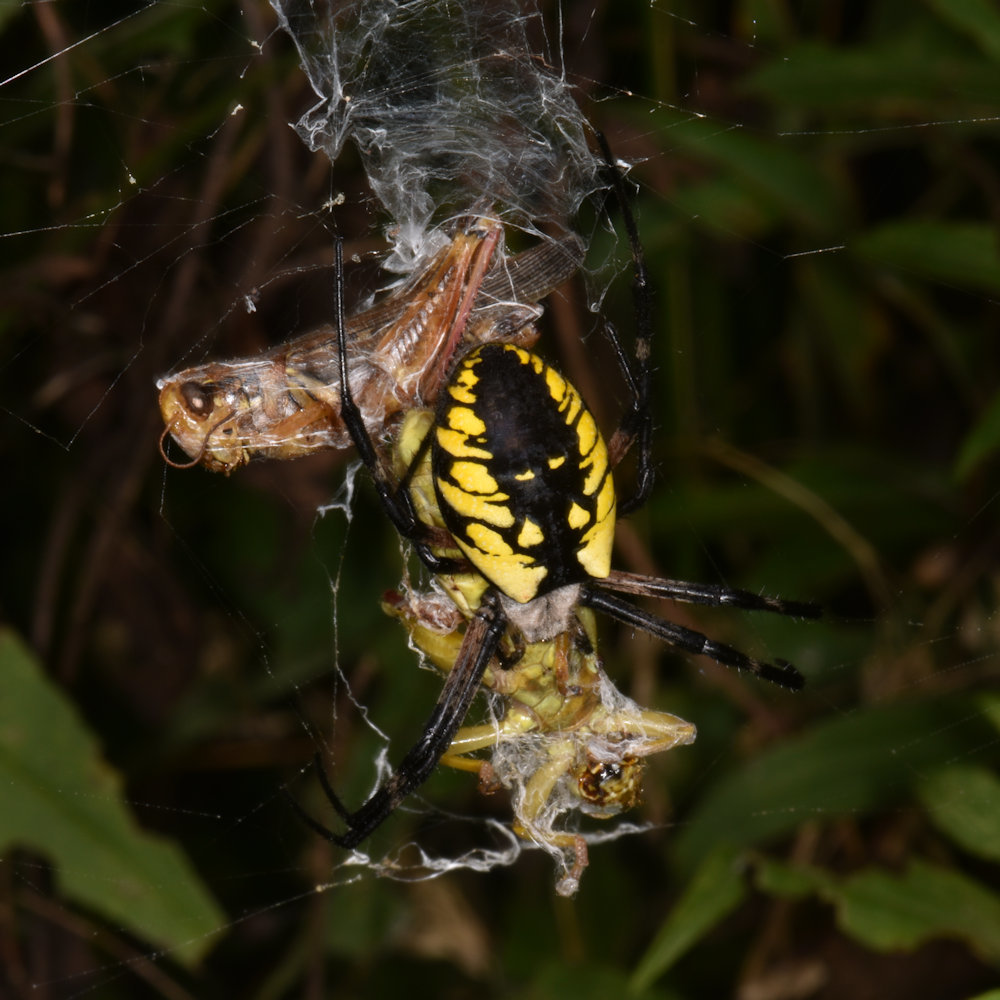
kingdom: Animalia
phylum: Arthropoda
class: Arachnida
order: Araneae
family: Araneidae
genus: Argiope
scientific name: Argiope aurantia
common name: Orb weavers
